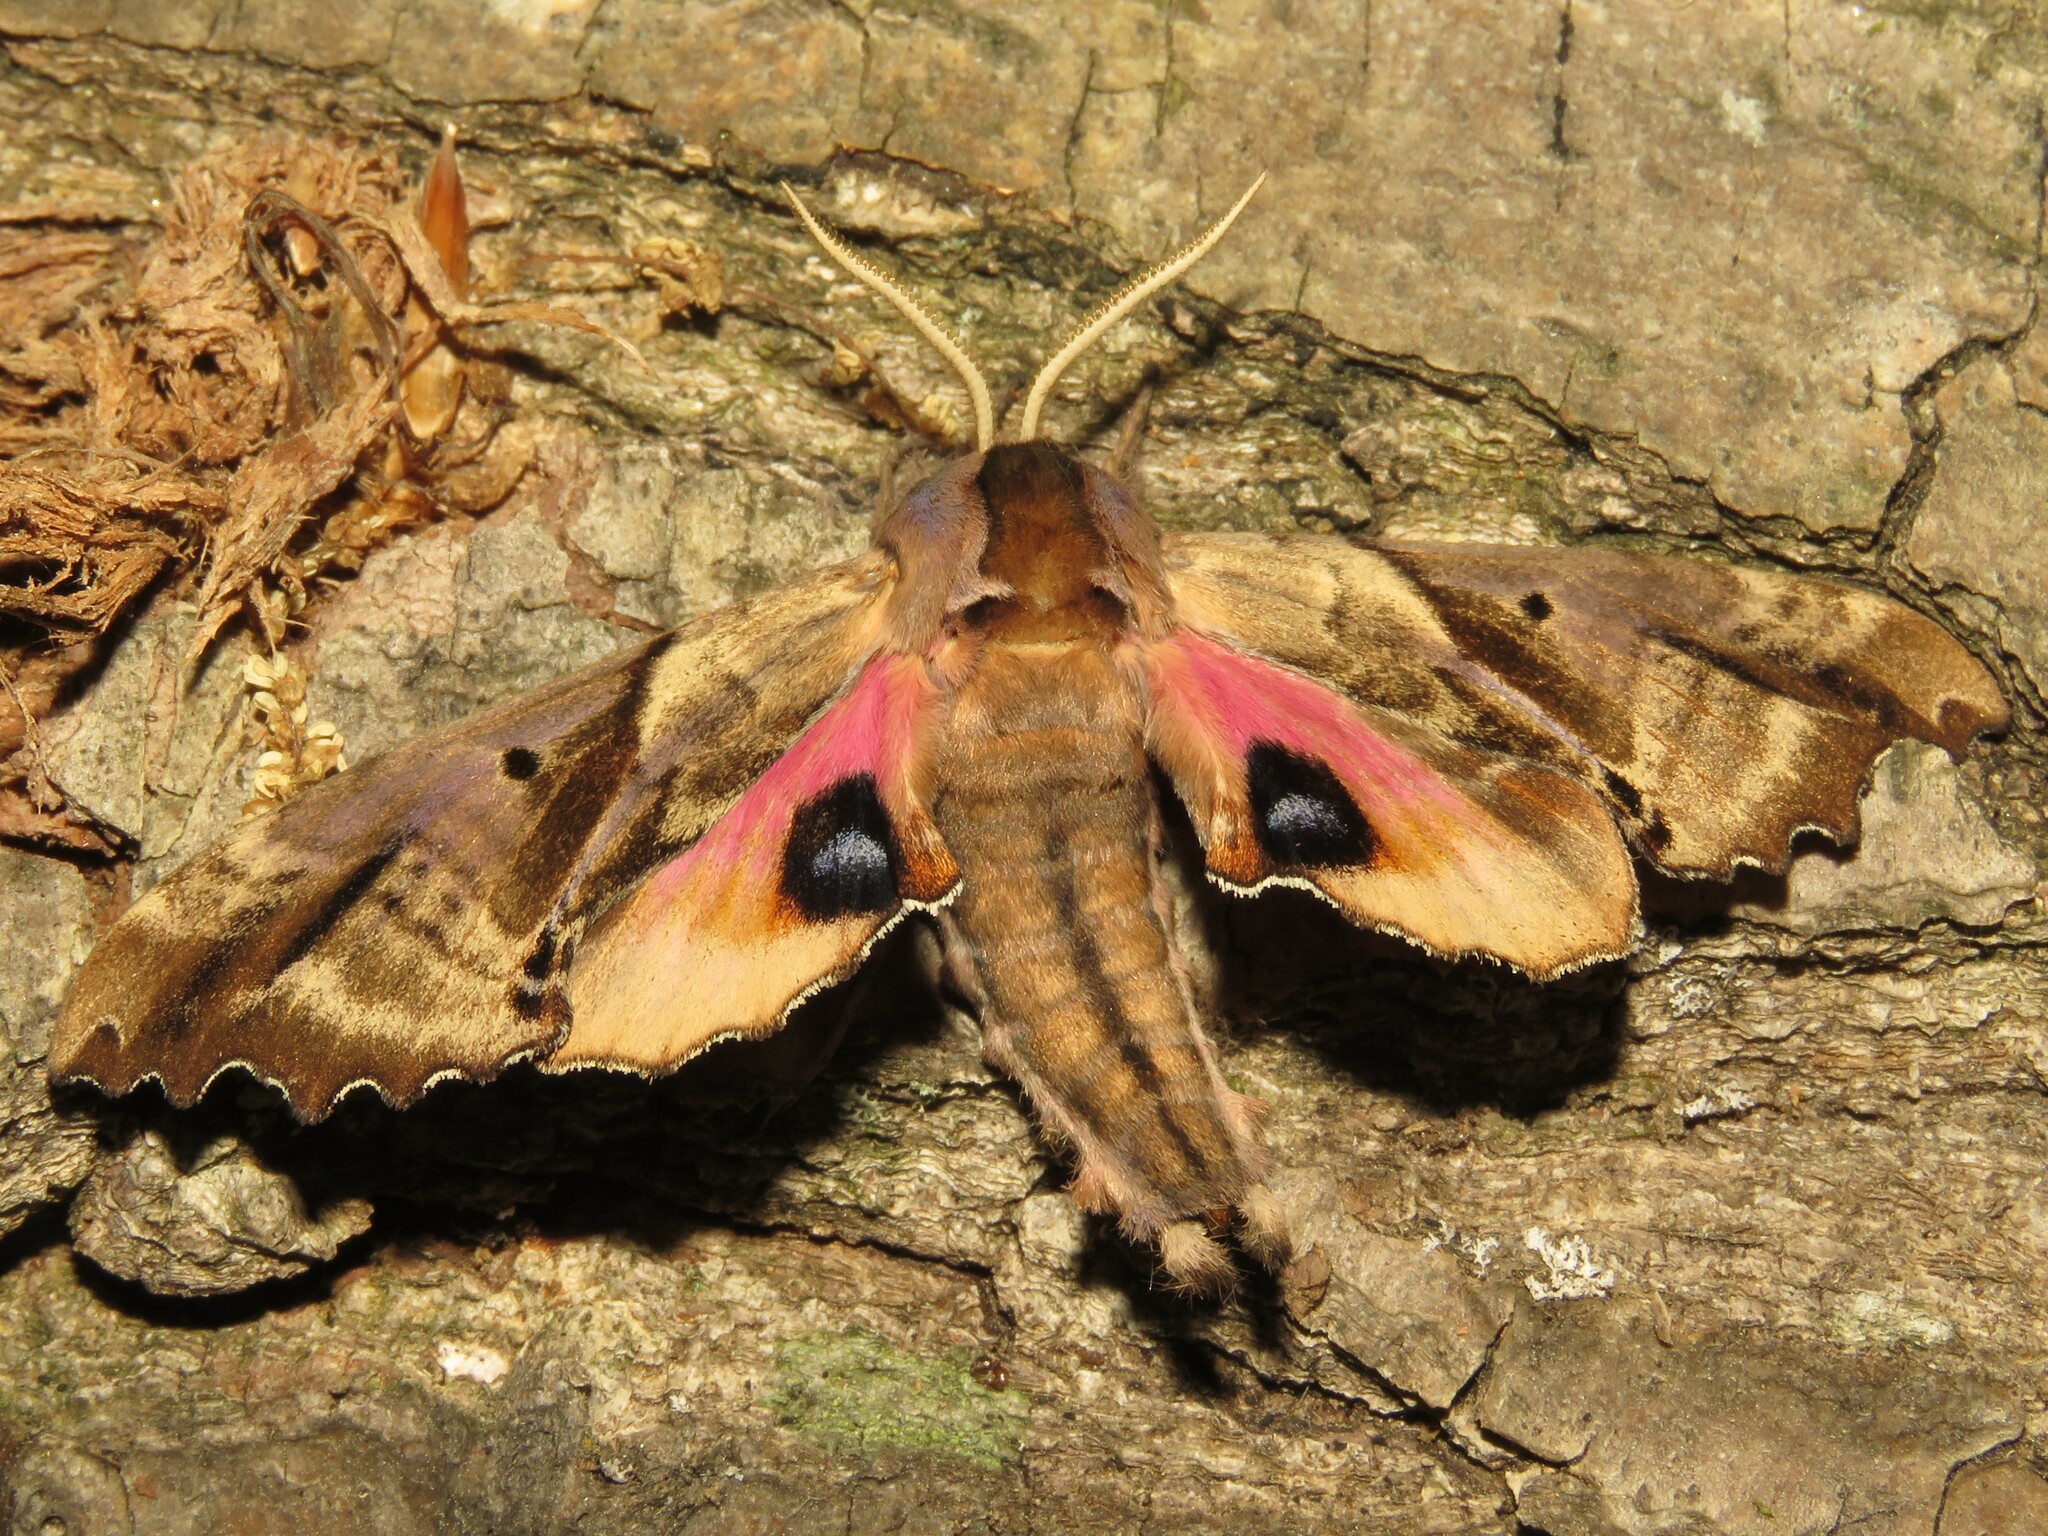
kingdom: Animalia
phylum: Arthropoda
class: Insecta
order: Lepidoptera
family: Sphingidae
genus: Paonias
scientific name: Paonias excaecata
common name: Blind-eyed sphinx
